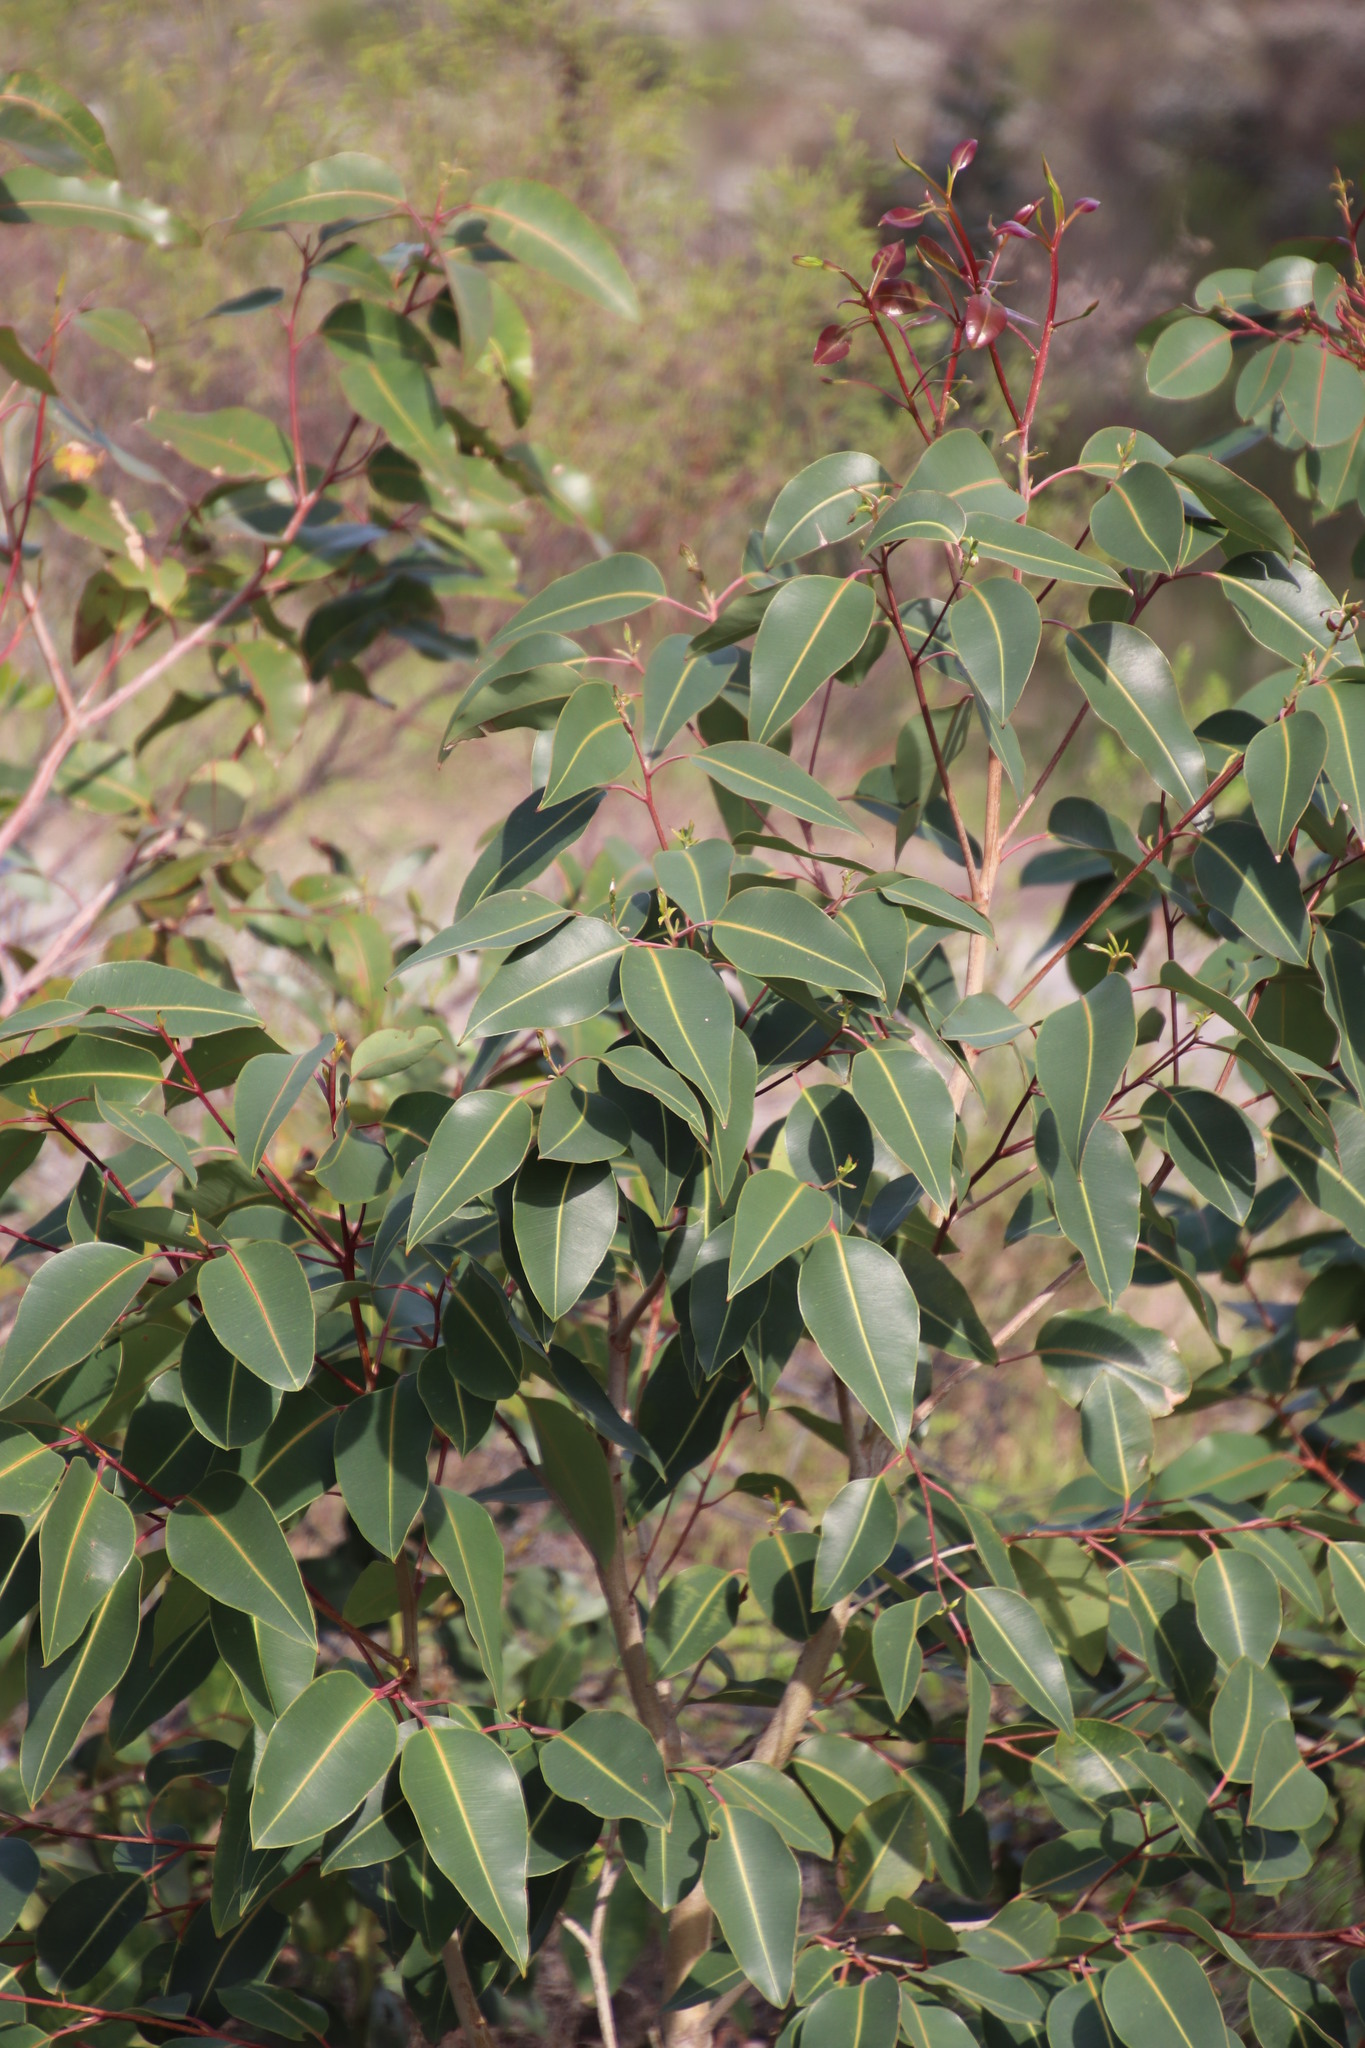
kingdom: Plantae
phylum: Tracheophyta
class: Magnoliopsida
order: Myrtales
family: Myrtaceae
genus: Corymbia
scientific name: Corymbia ficifolia
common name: Redflower gum
